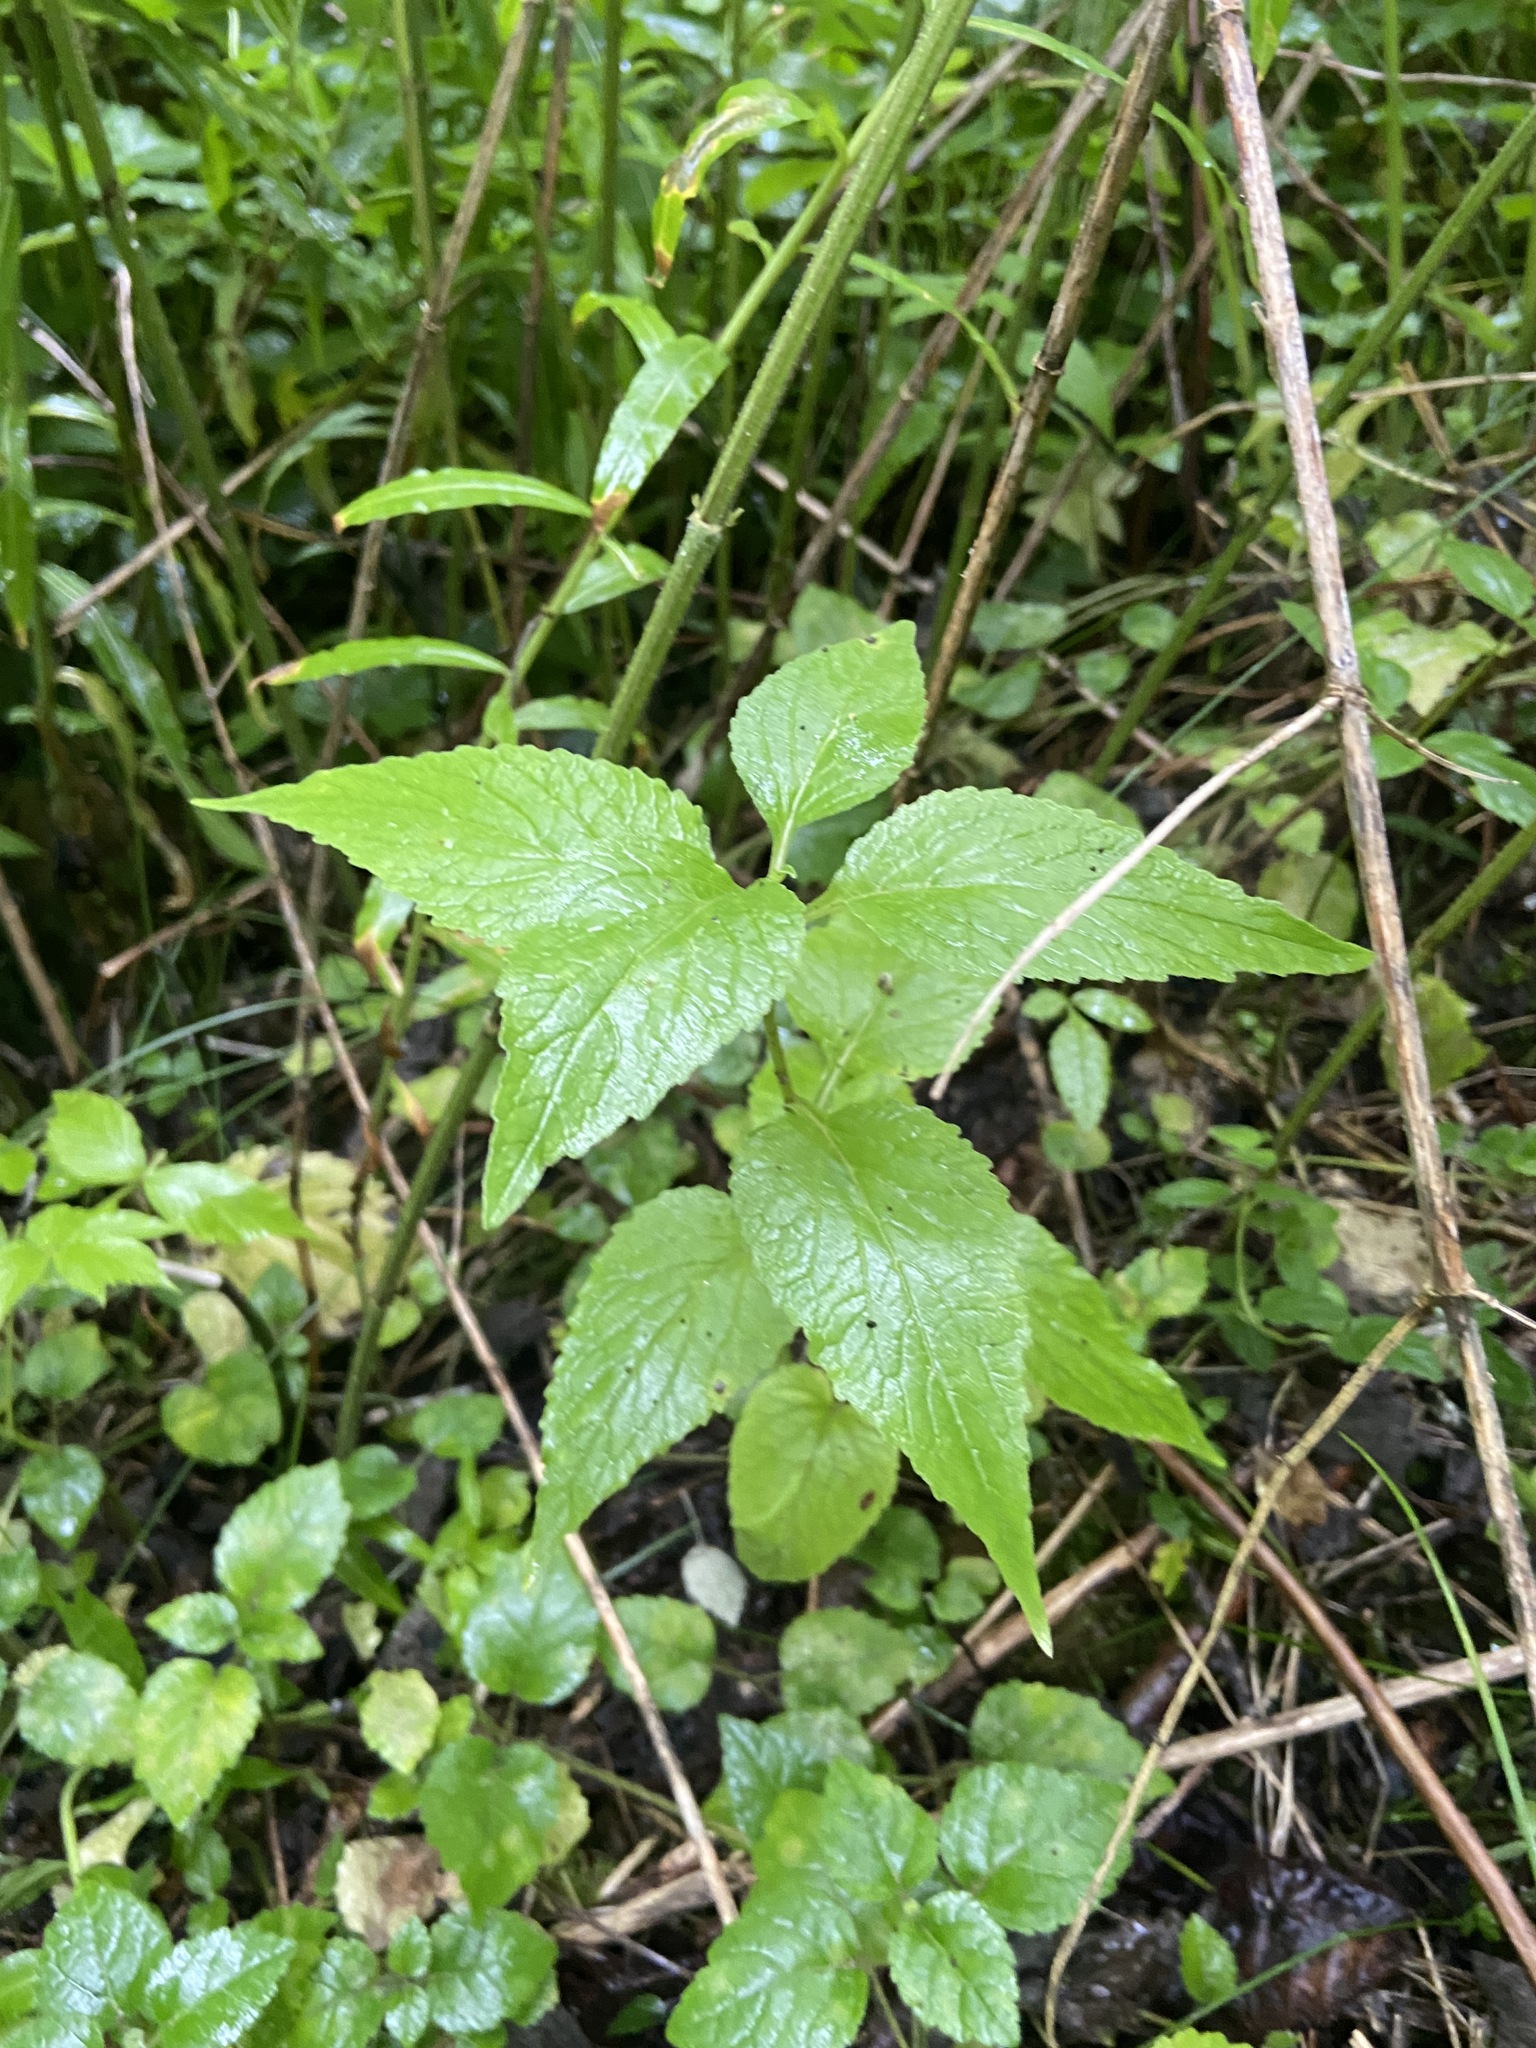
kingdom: Plantae
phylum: Tracheophyta
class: Magnoliopsida
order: Asterales
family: Campanulaceae
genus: Campanula
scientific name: Campanula latifolia
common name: Giant bellflower
